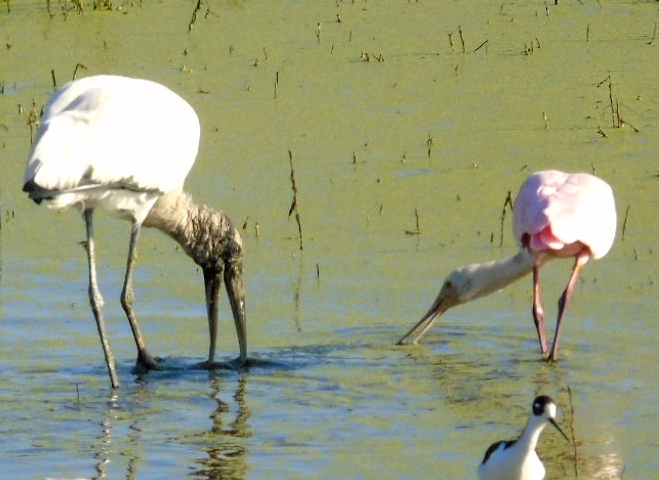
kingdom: Animalia
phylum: Chordata
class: Aves
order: Ciconiiformes
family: Ciconiidae
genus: Mycteria
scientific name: Mycteria americana
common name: Wood stork
